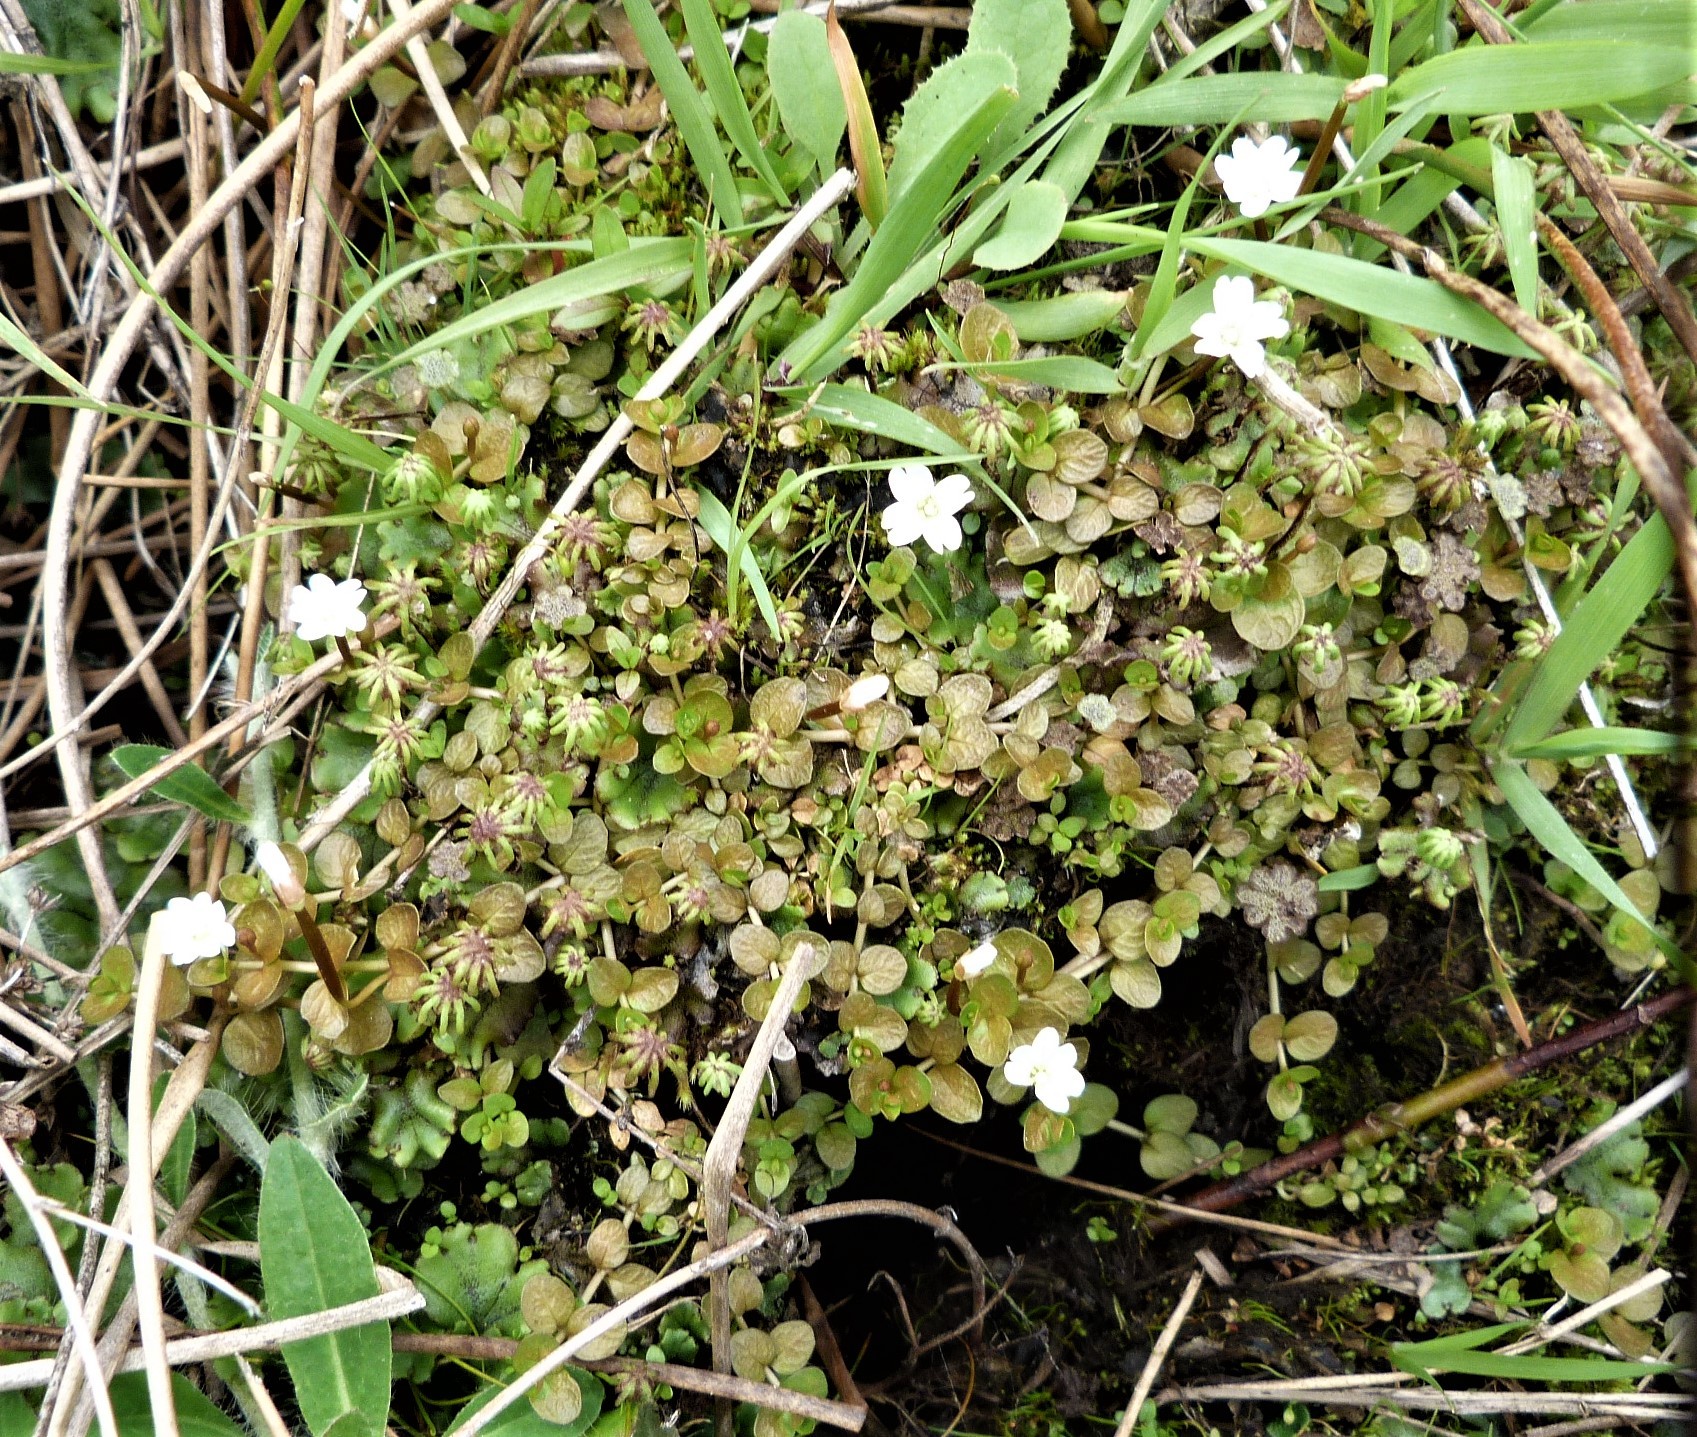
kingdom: Plantae
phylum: Tracheophyta
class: Magnoliopsida
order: Myrtales
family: Onagraceae
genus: Epilobium
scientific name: Epilobium komarovianum
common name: Bronzy willowherb
